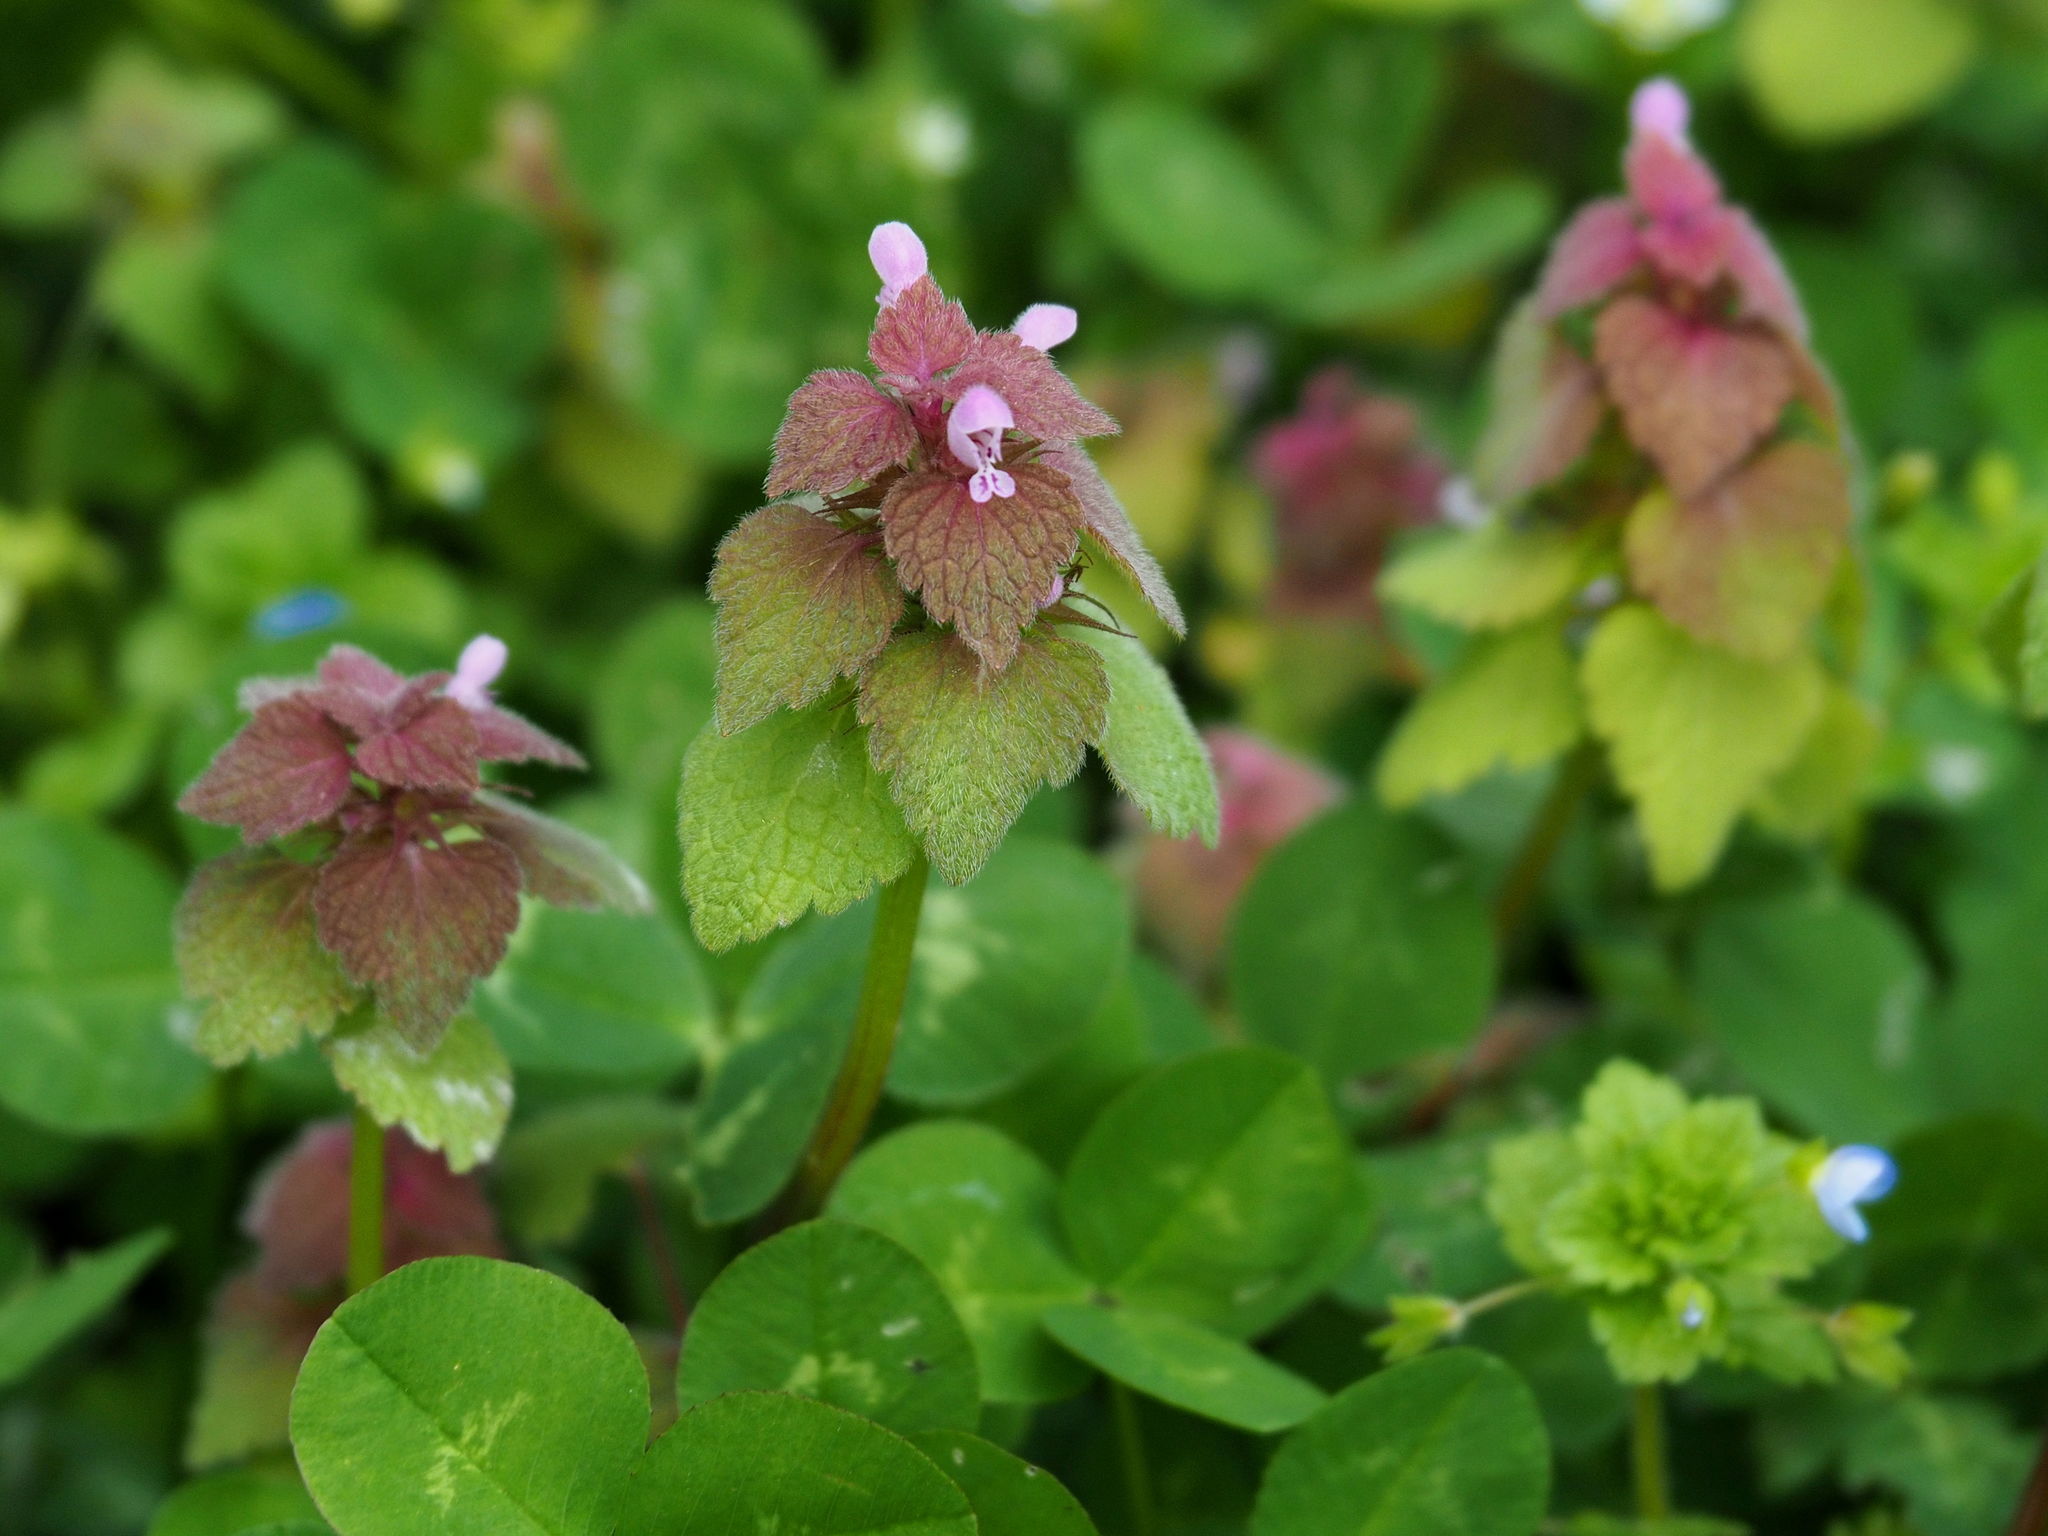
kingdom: Plantae
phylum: Tracheophyta
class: Magnoliopsida
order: Lamiales
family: Lamiaceae
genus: Lamium
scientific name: Lamium purpureum
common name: Red dead-nettle
